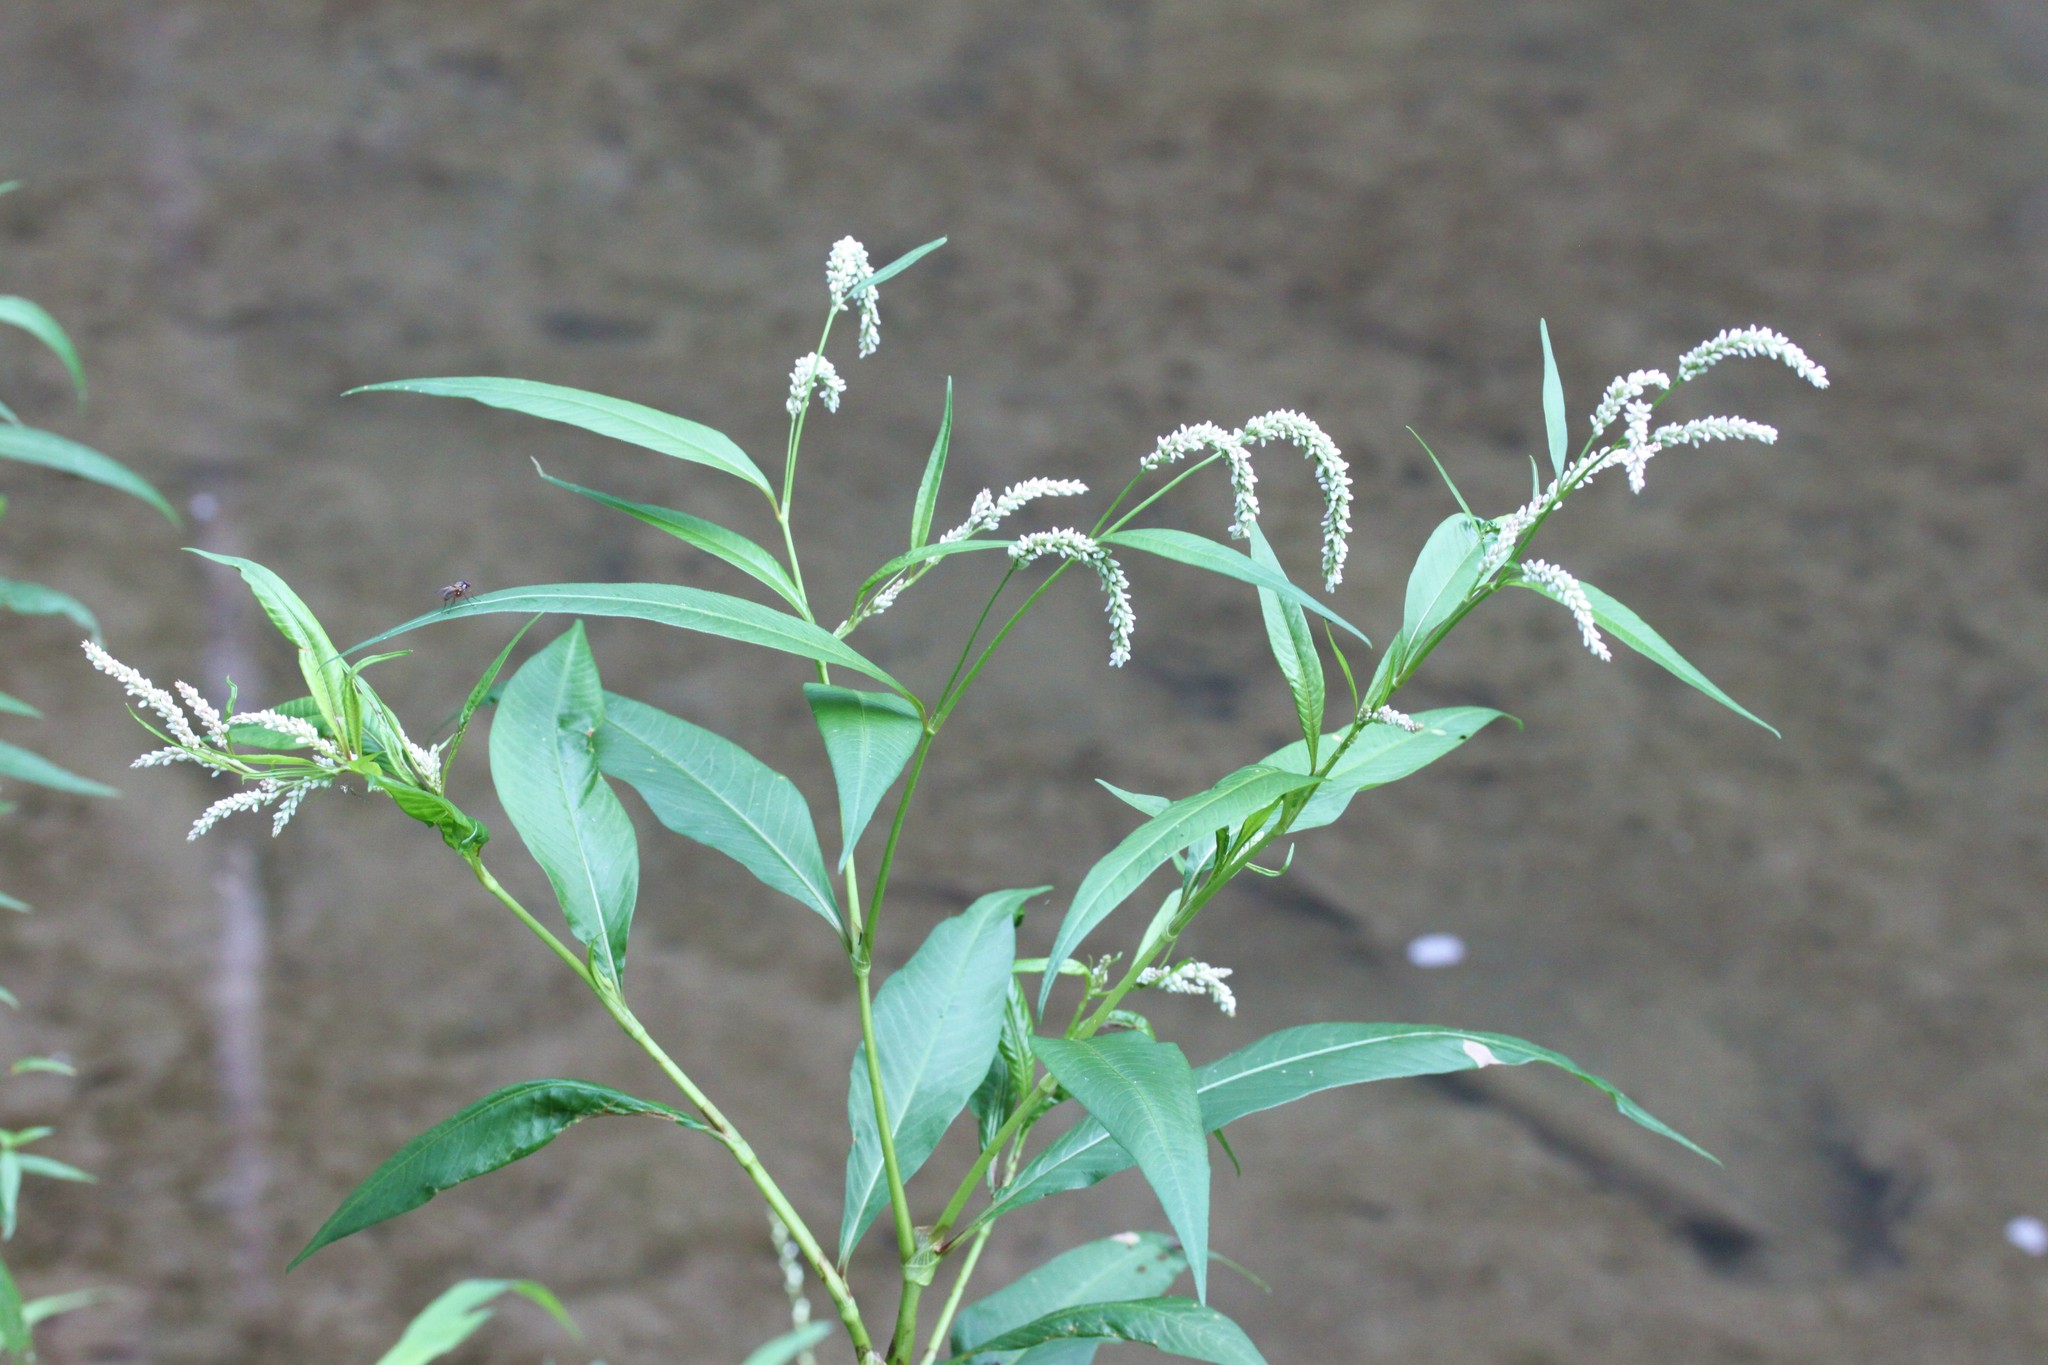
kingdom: Plantae
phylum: Tracheophyta
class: Magnoliopsida
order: Caryophyllales
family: Polygonaceae
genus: Persicaria
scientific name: Persicaria lapathifolia
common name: Curlytop knotweed
